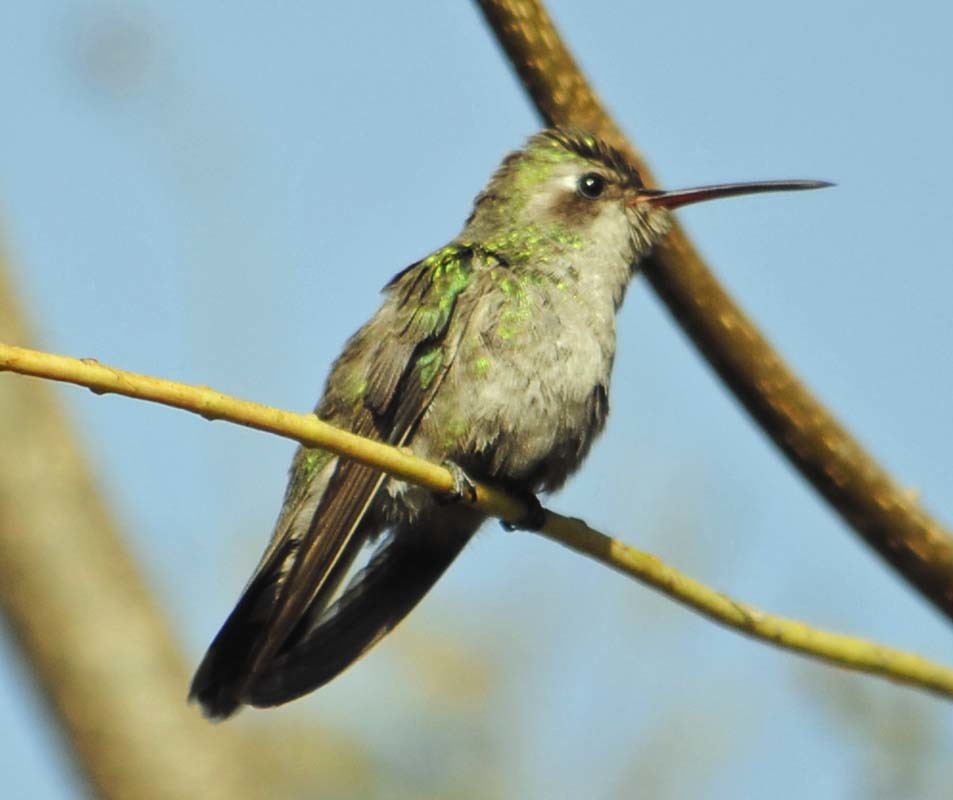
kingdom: Animalia
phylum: Chordata
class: Aves
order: Apodiformes
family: Trochilidae
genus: Cynanthus
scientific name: Cynanthus latirostris
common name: Broad-billed hummingbird
